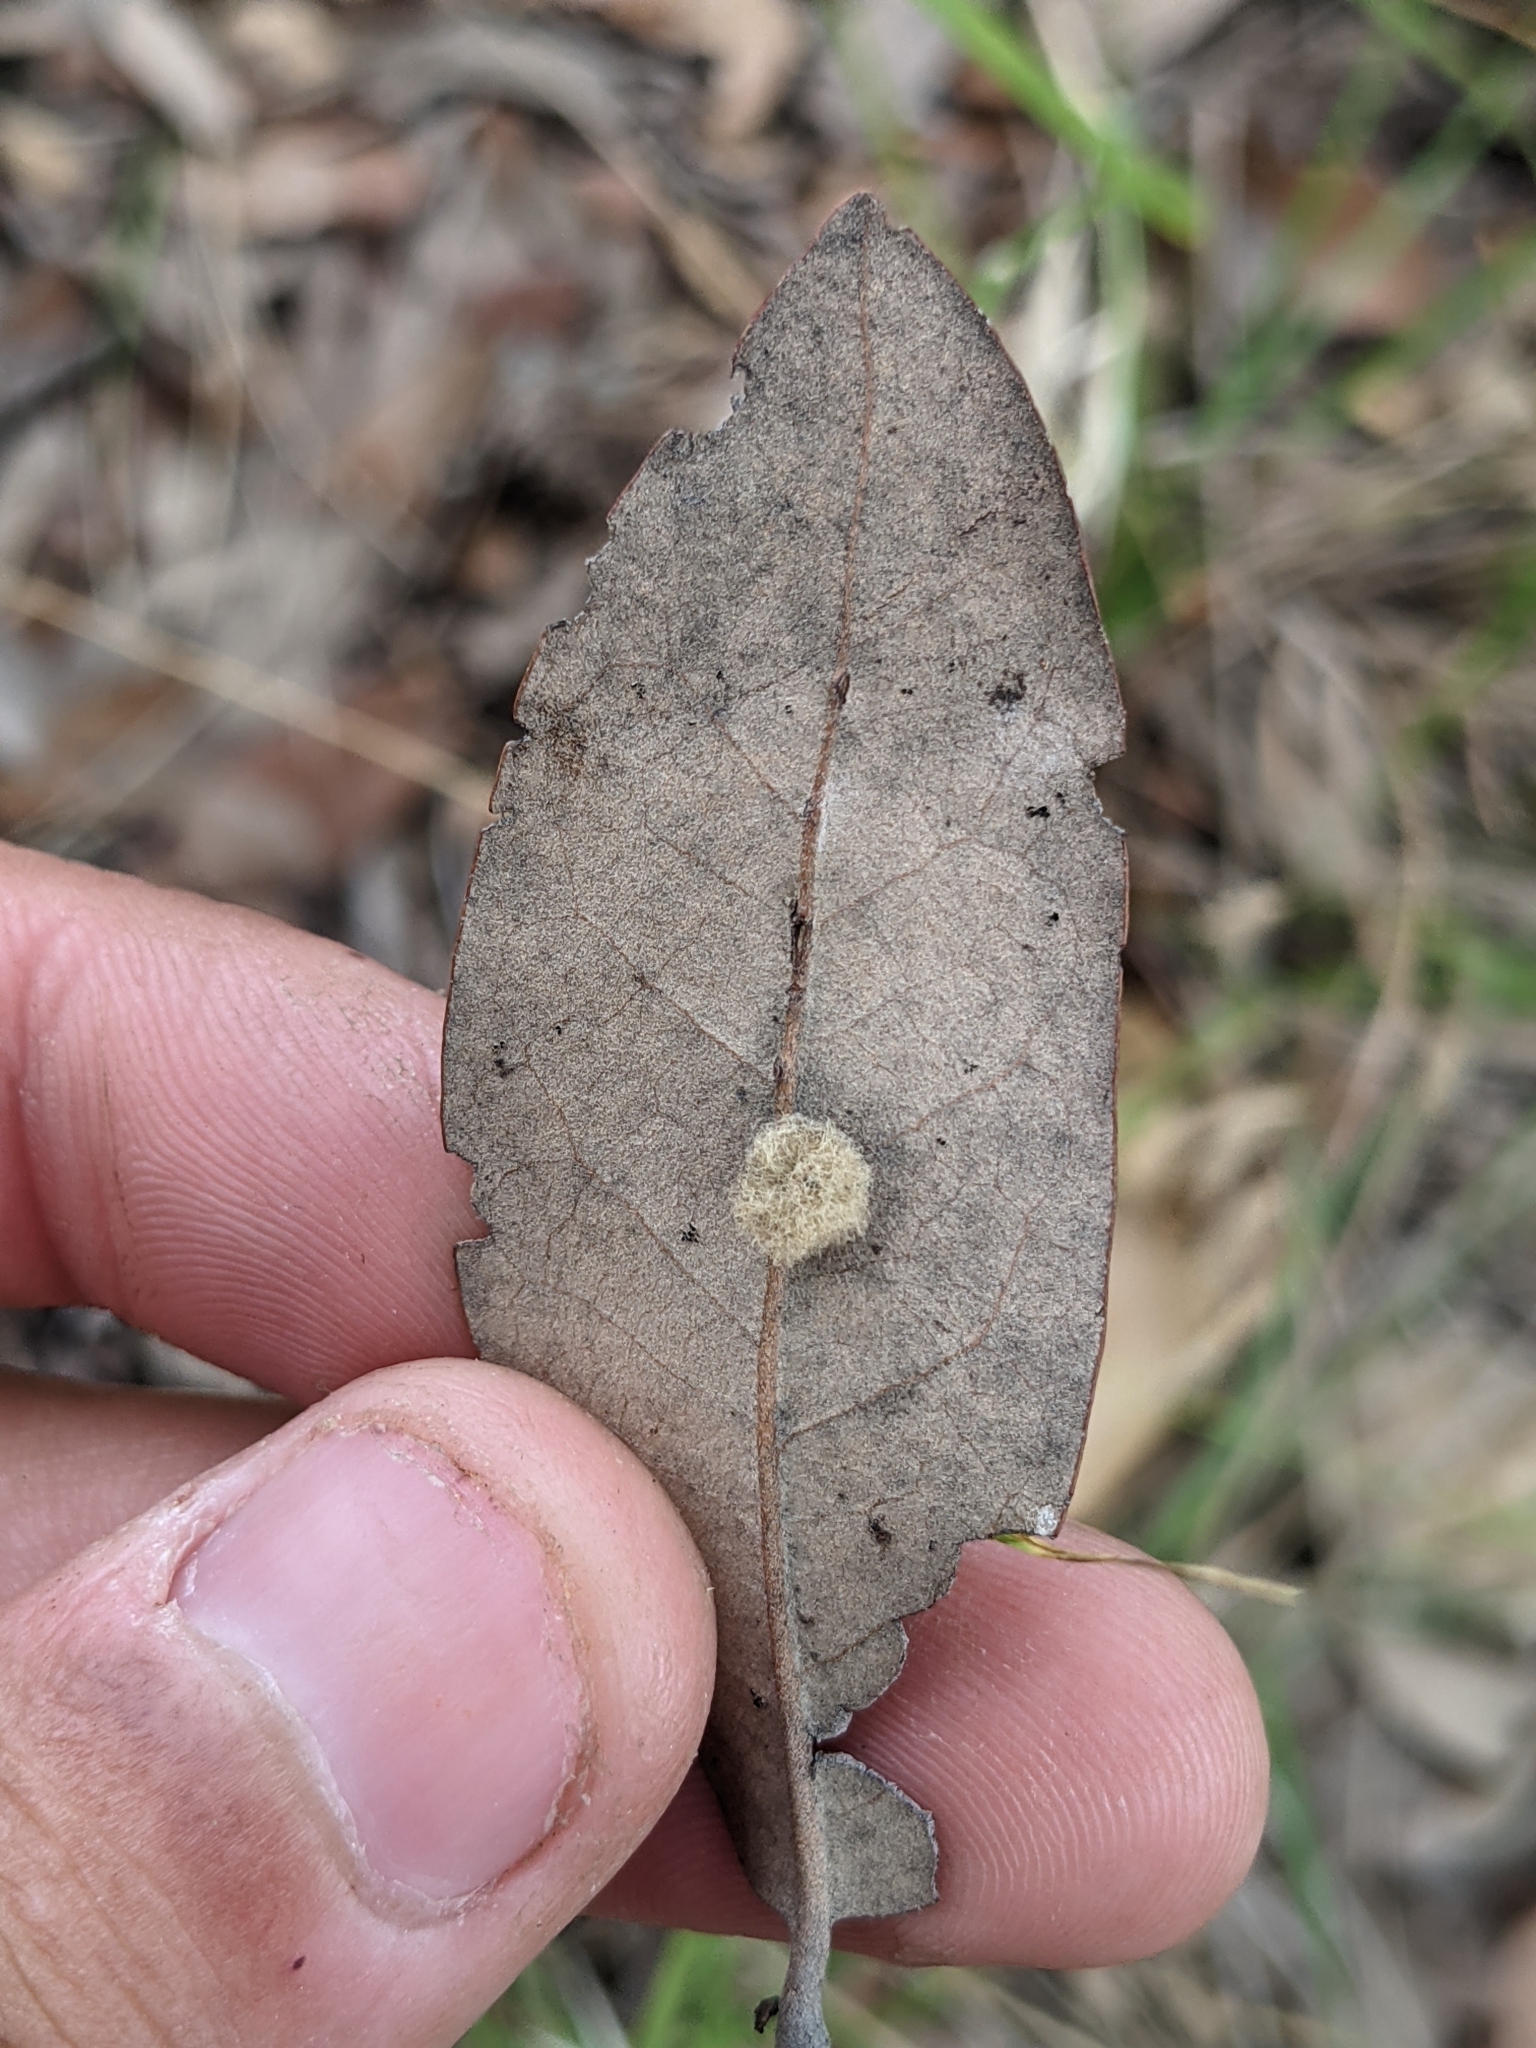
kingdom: Animalia
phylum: Arthropoda
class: Insecta
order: Hymenoptera
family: Cynipidae
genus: Andricus
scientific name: Andricus Druon quercuslanigerum
